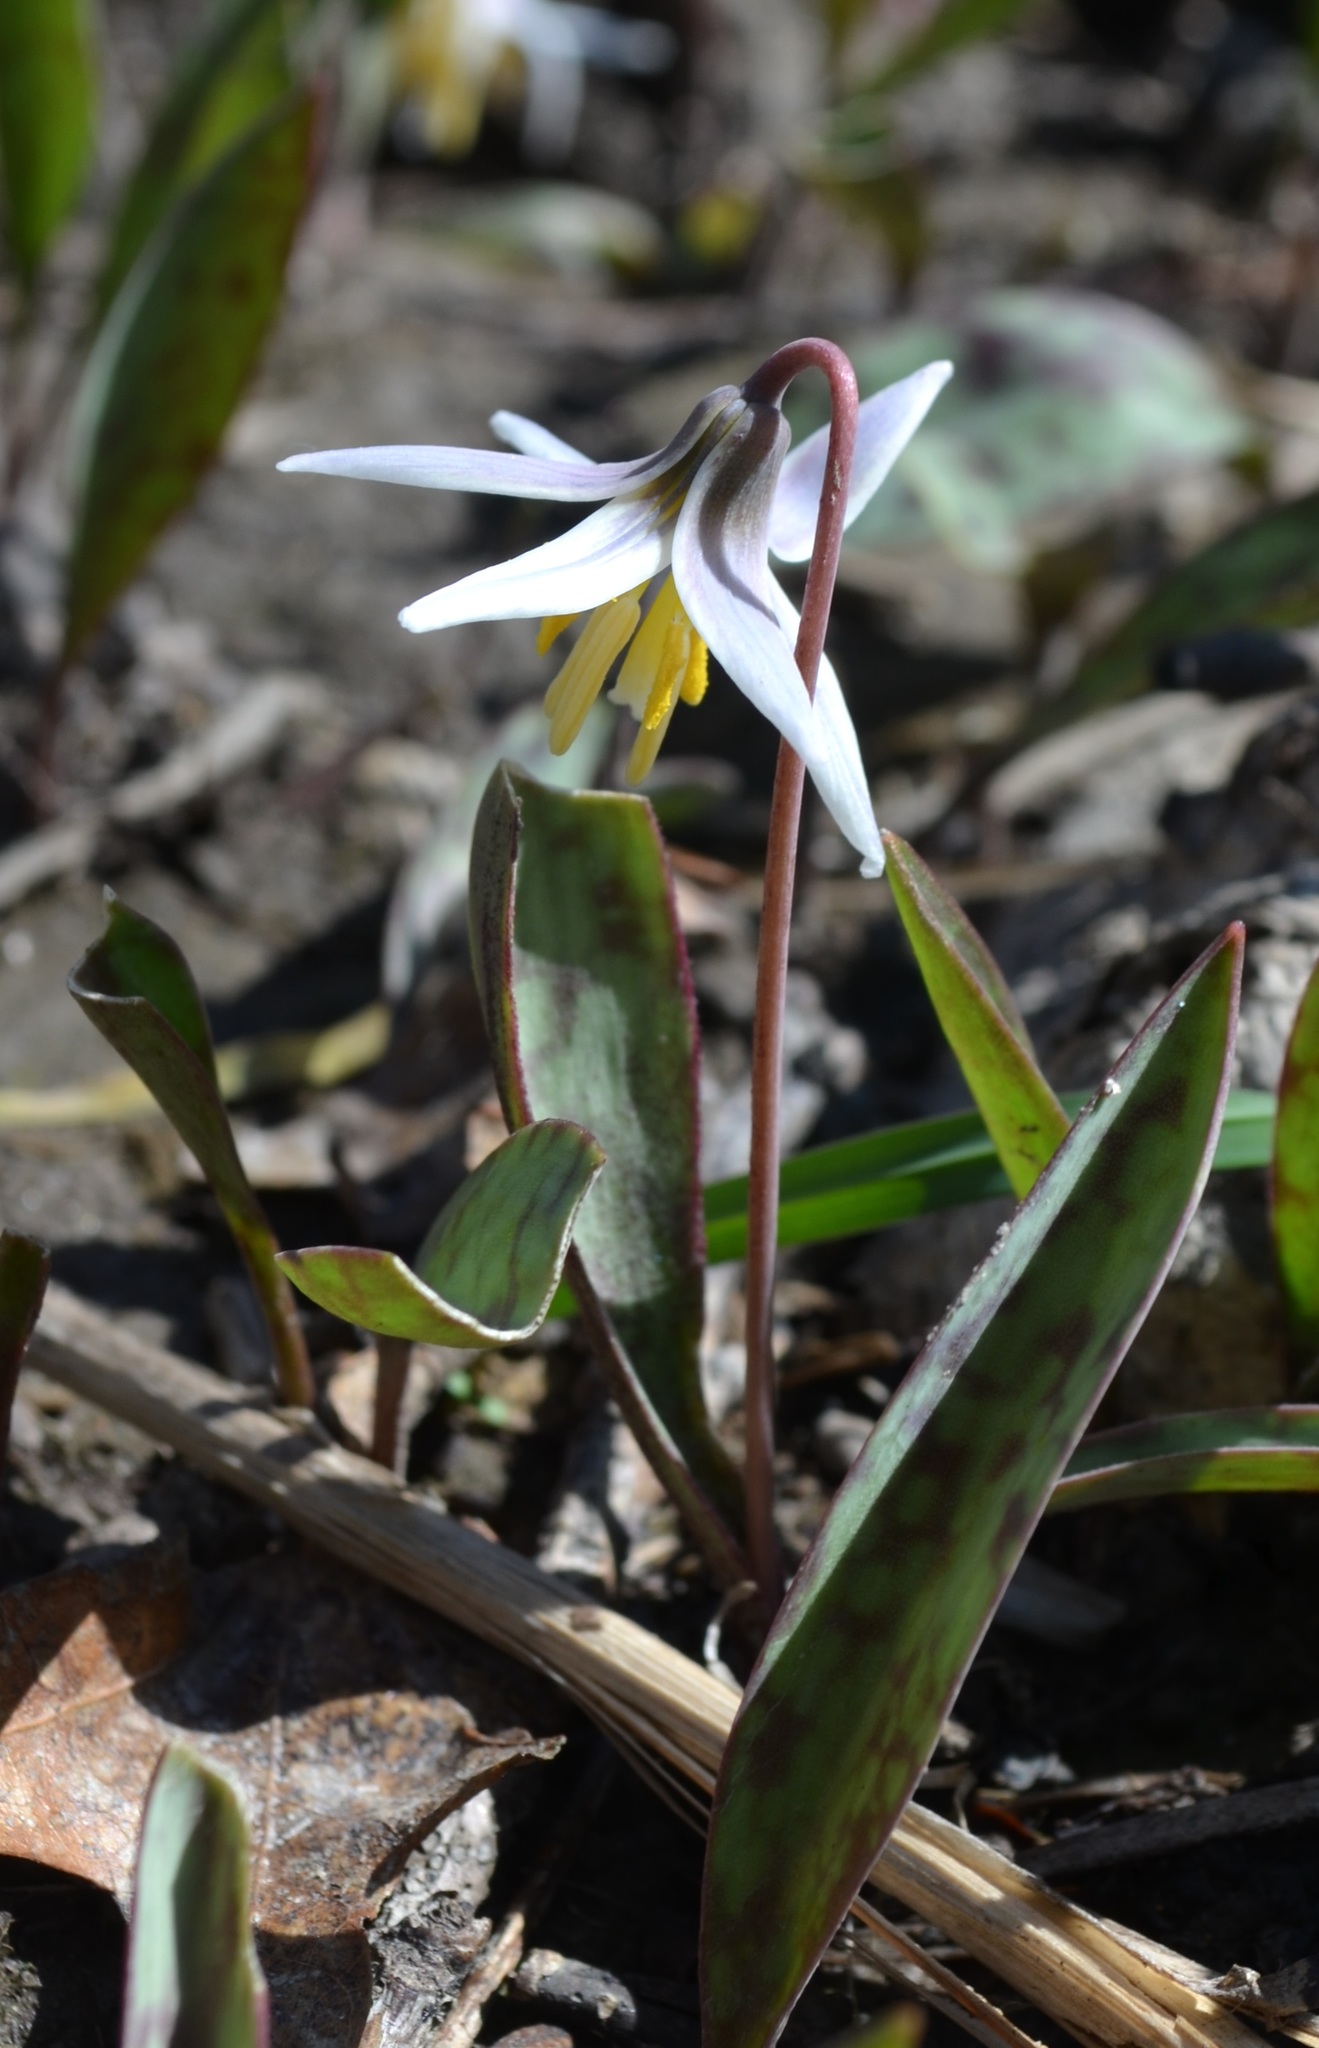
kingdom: Plantae
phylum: Tracheophyta
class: Liliopsida
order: Liliales
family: Liliaceae
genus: Erythronium
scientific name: Erythronium albidum
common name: White trout-lily
